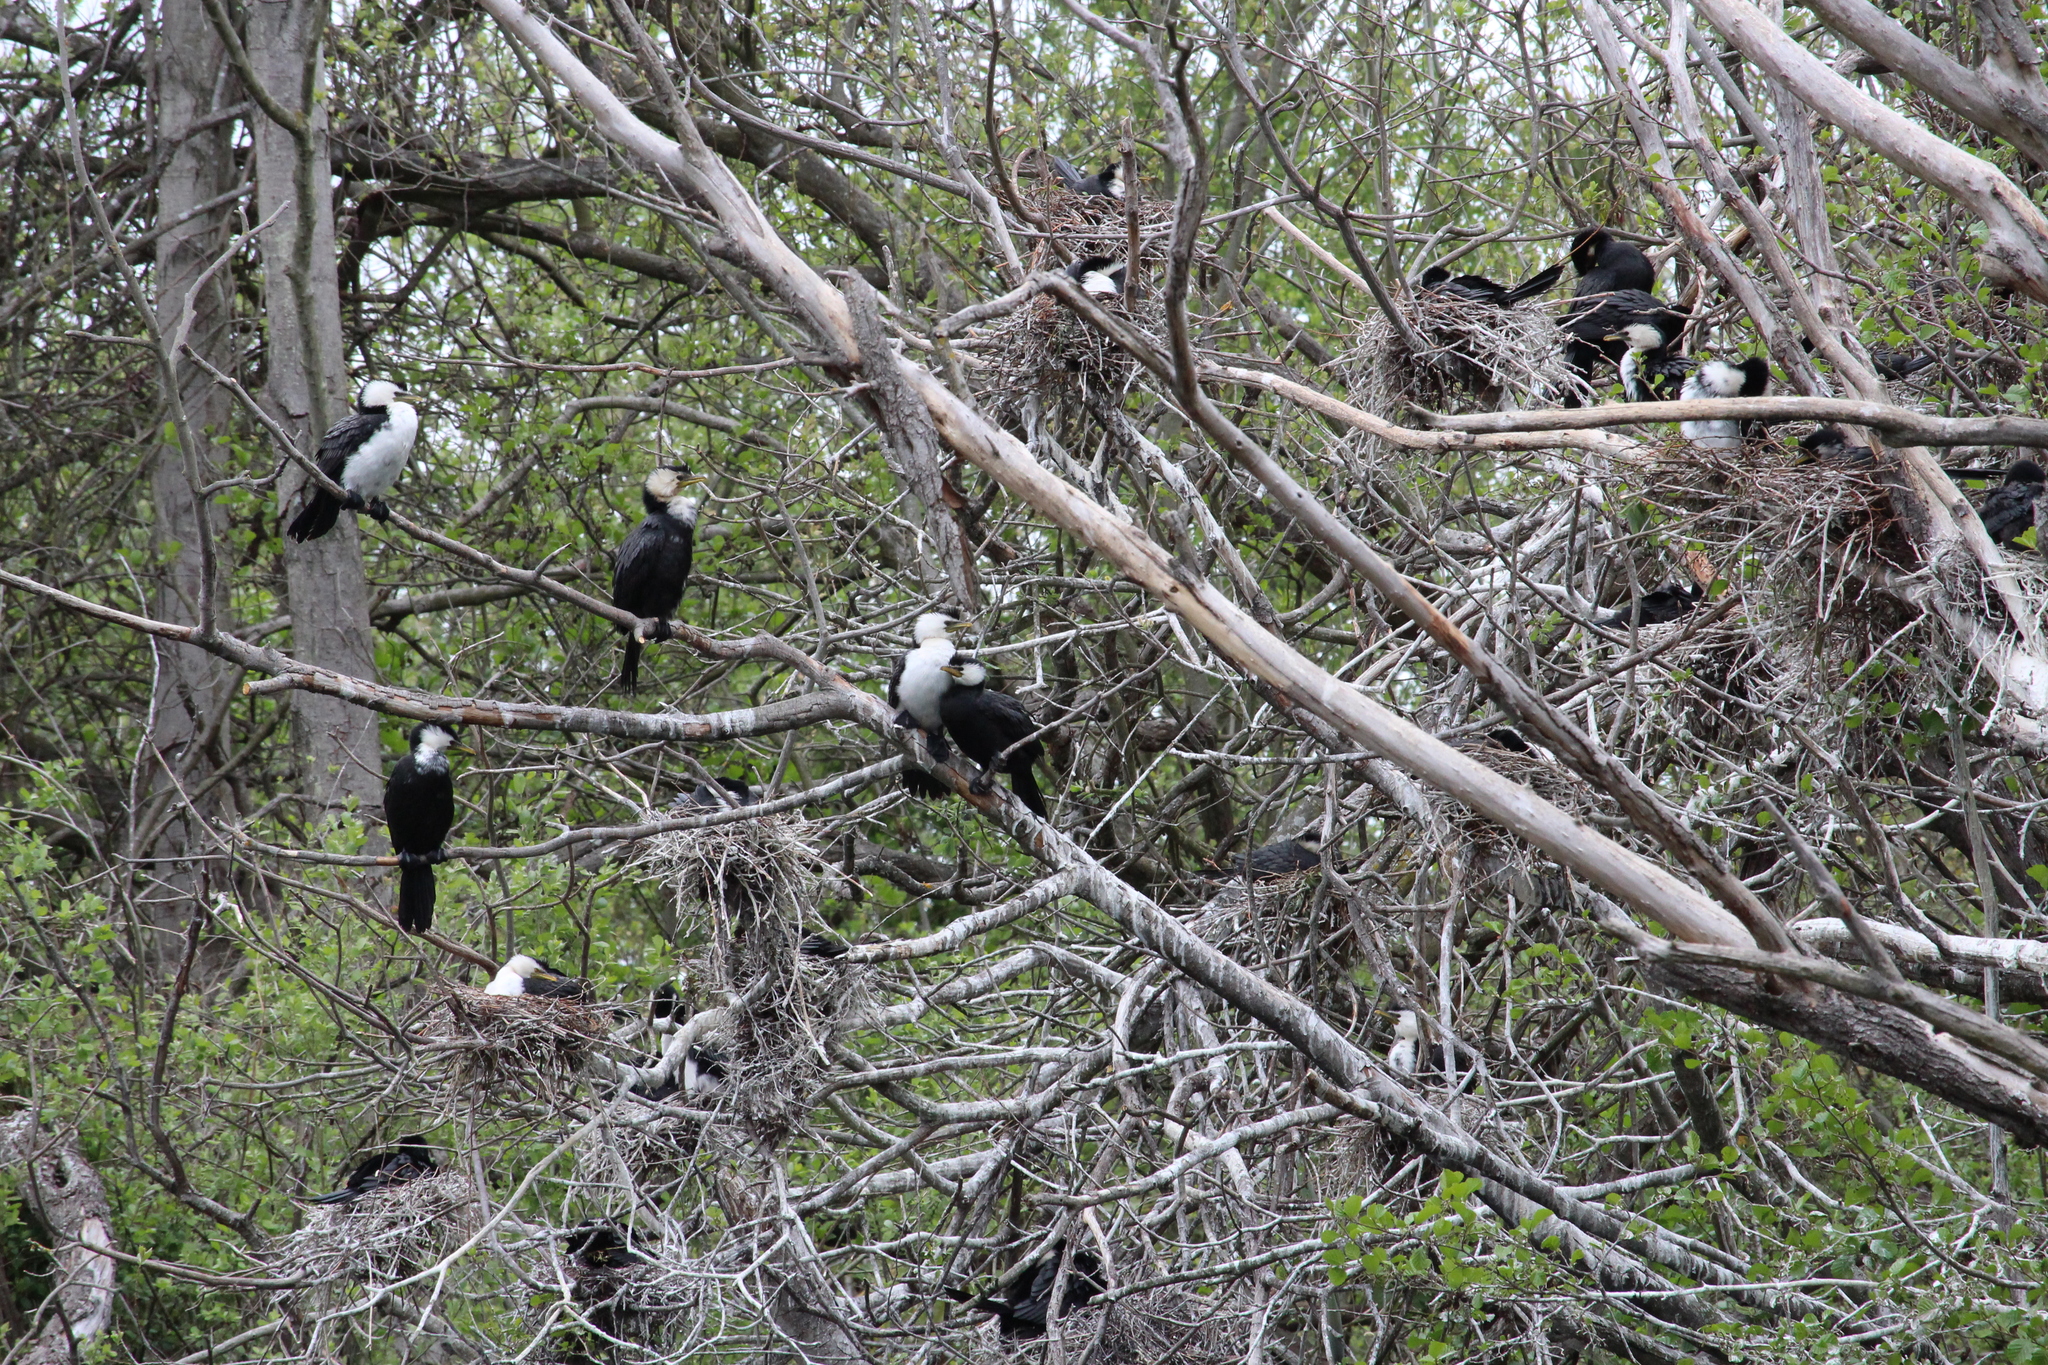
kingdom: Animalia
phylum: Chordata
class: Aves
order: Suliformes
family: Phalacrocoracidae
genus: Microcarbo
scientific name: Microcarbo melanoleucos
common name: Little pied cormorant
